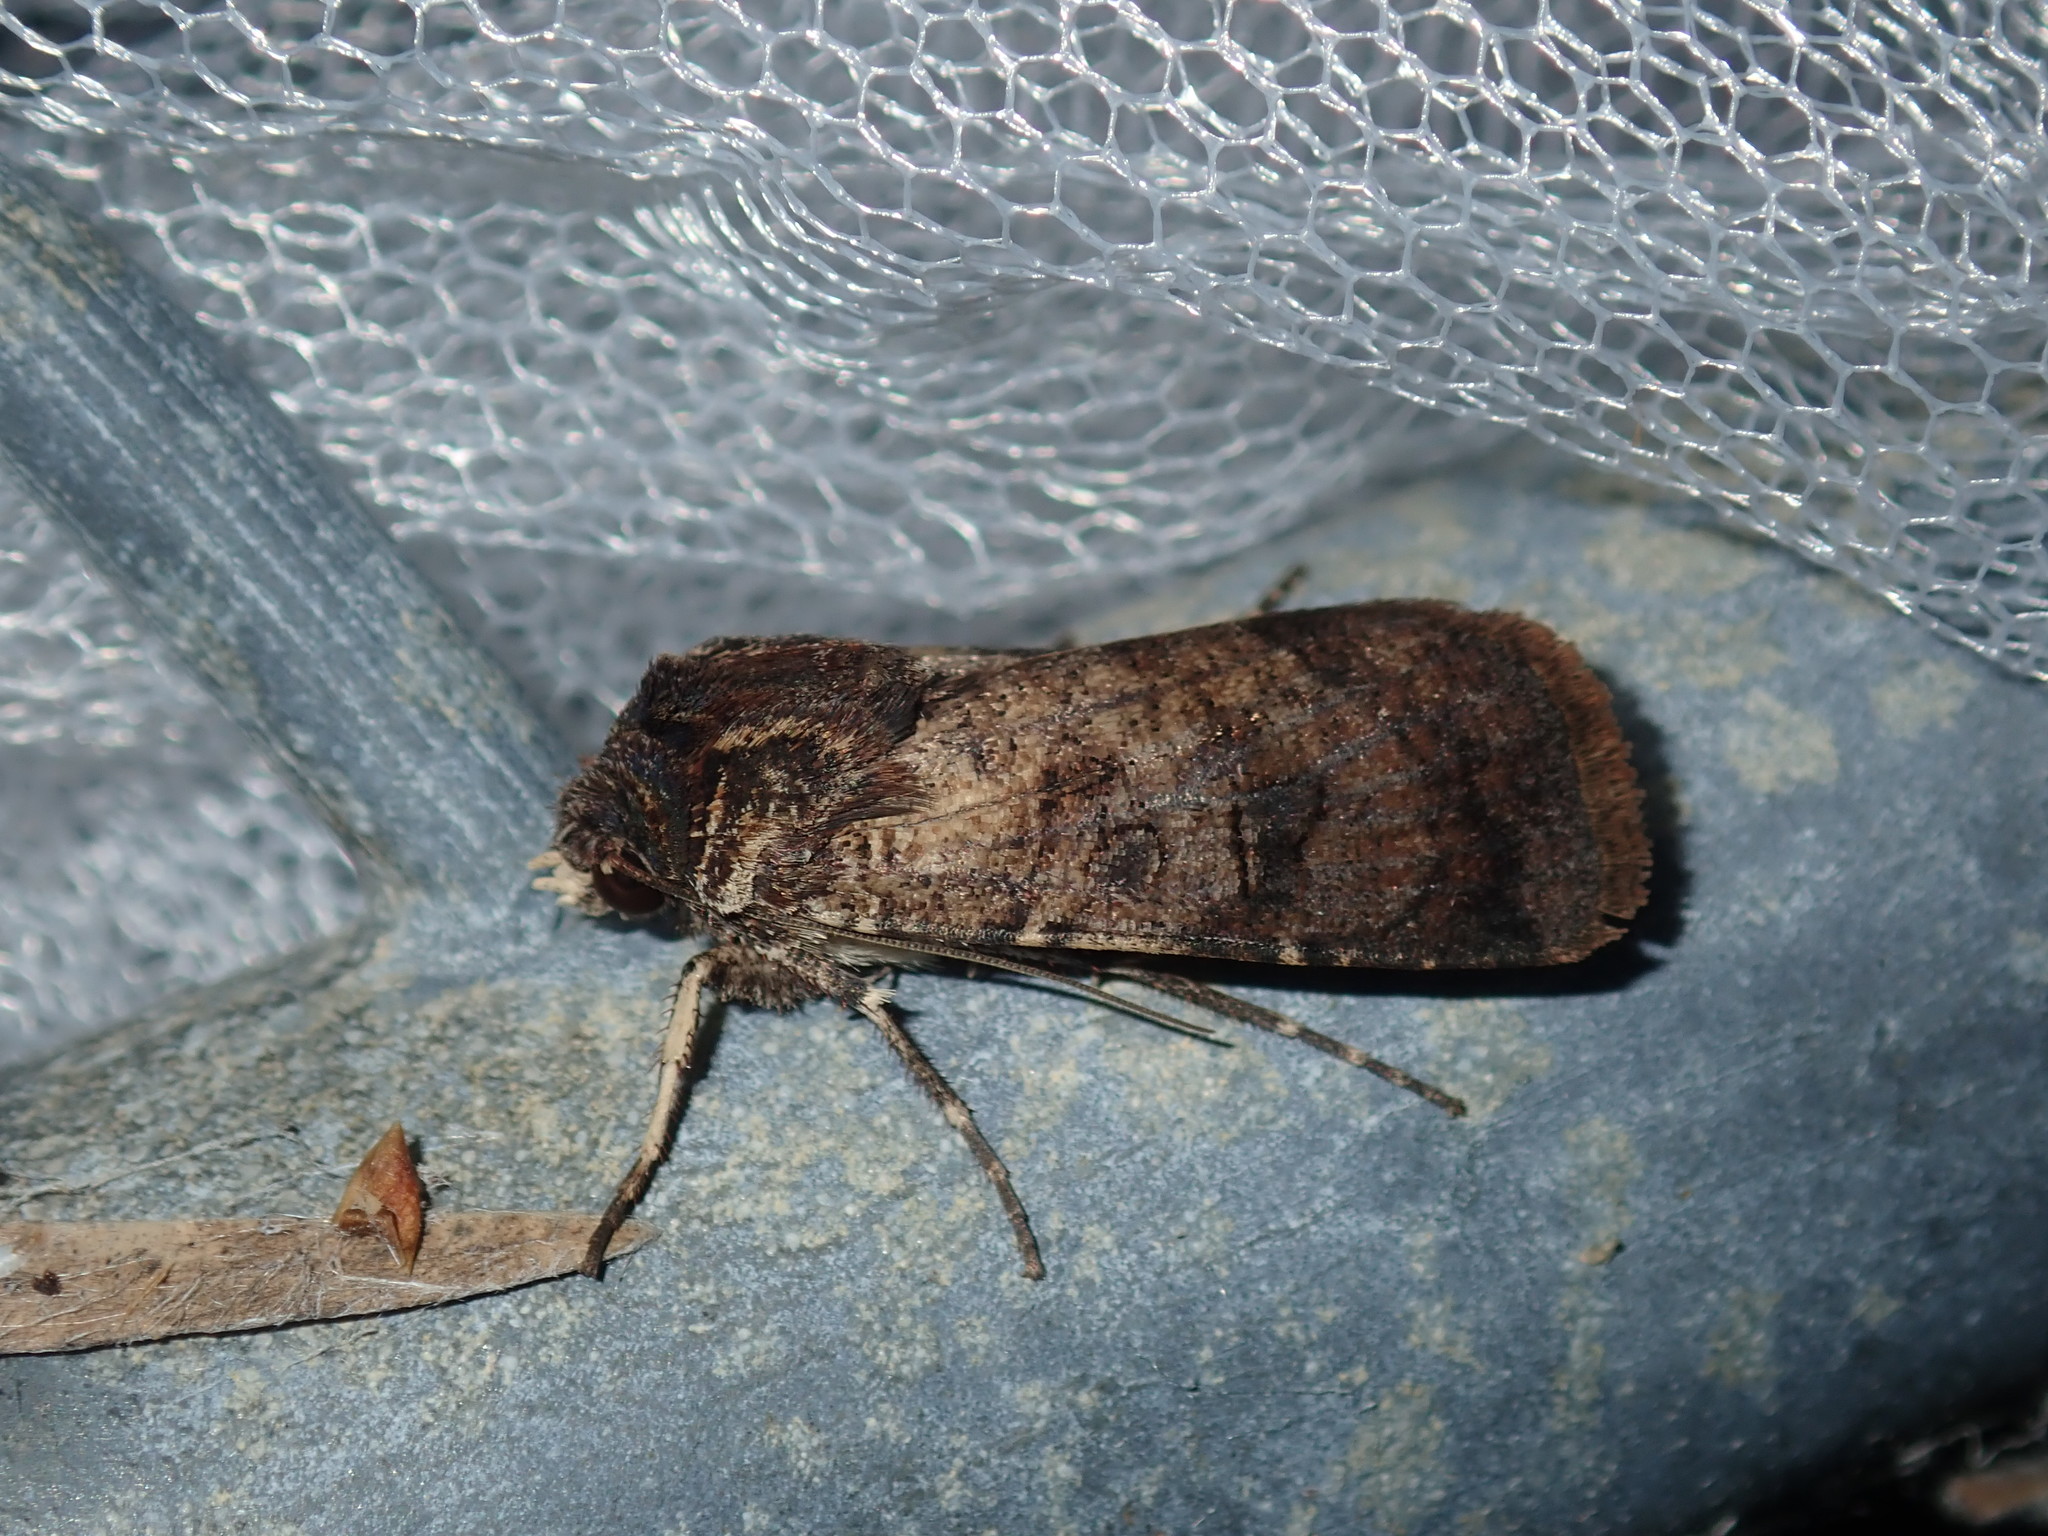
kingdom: Animalia
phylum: Arthropoda
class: Insecta
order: Lepidoptera
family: Noctuidae
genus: Agrotis
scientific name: Agrotis porphyricollis
